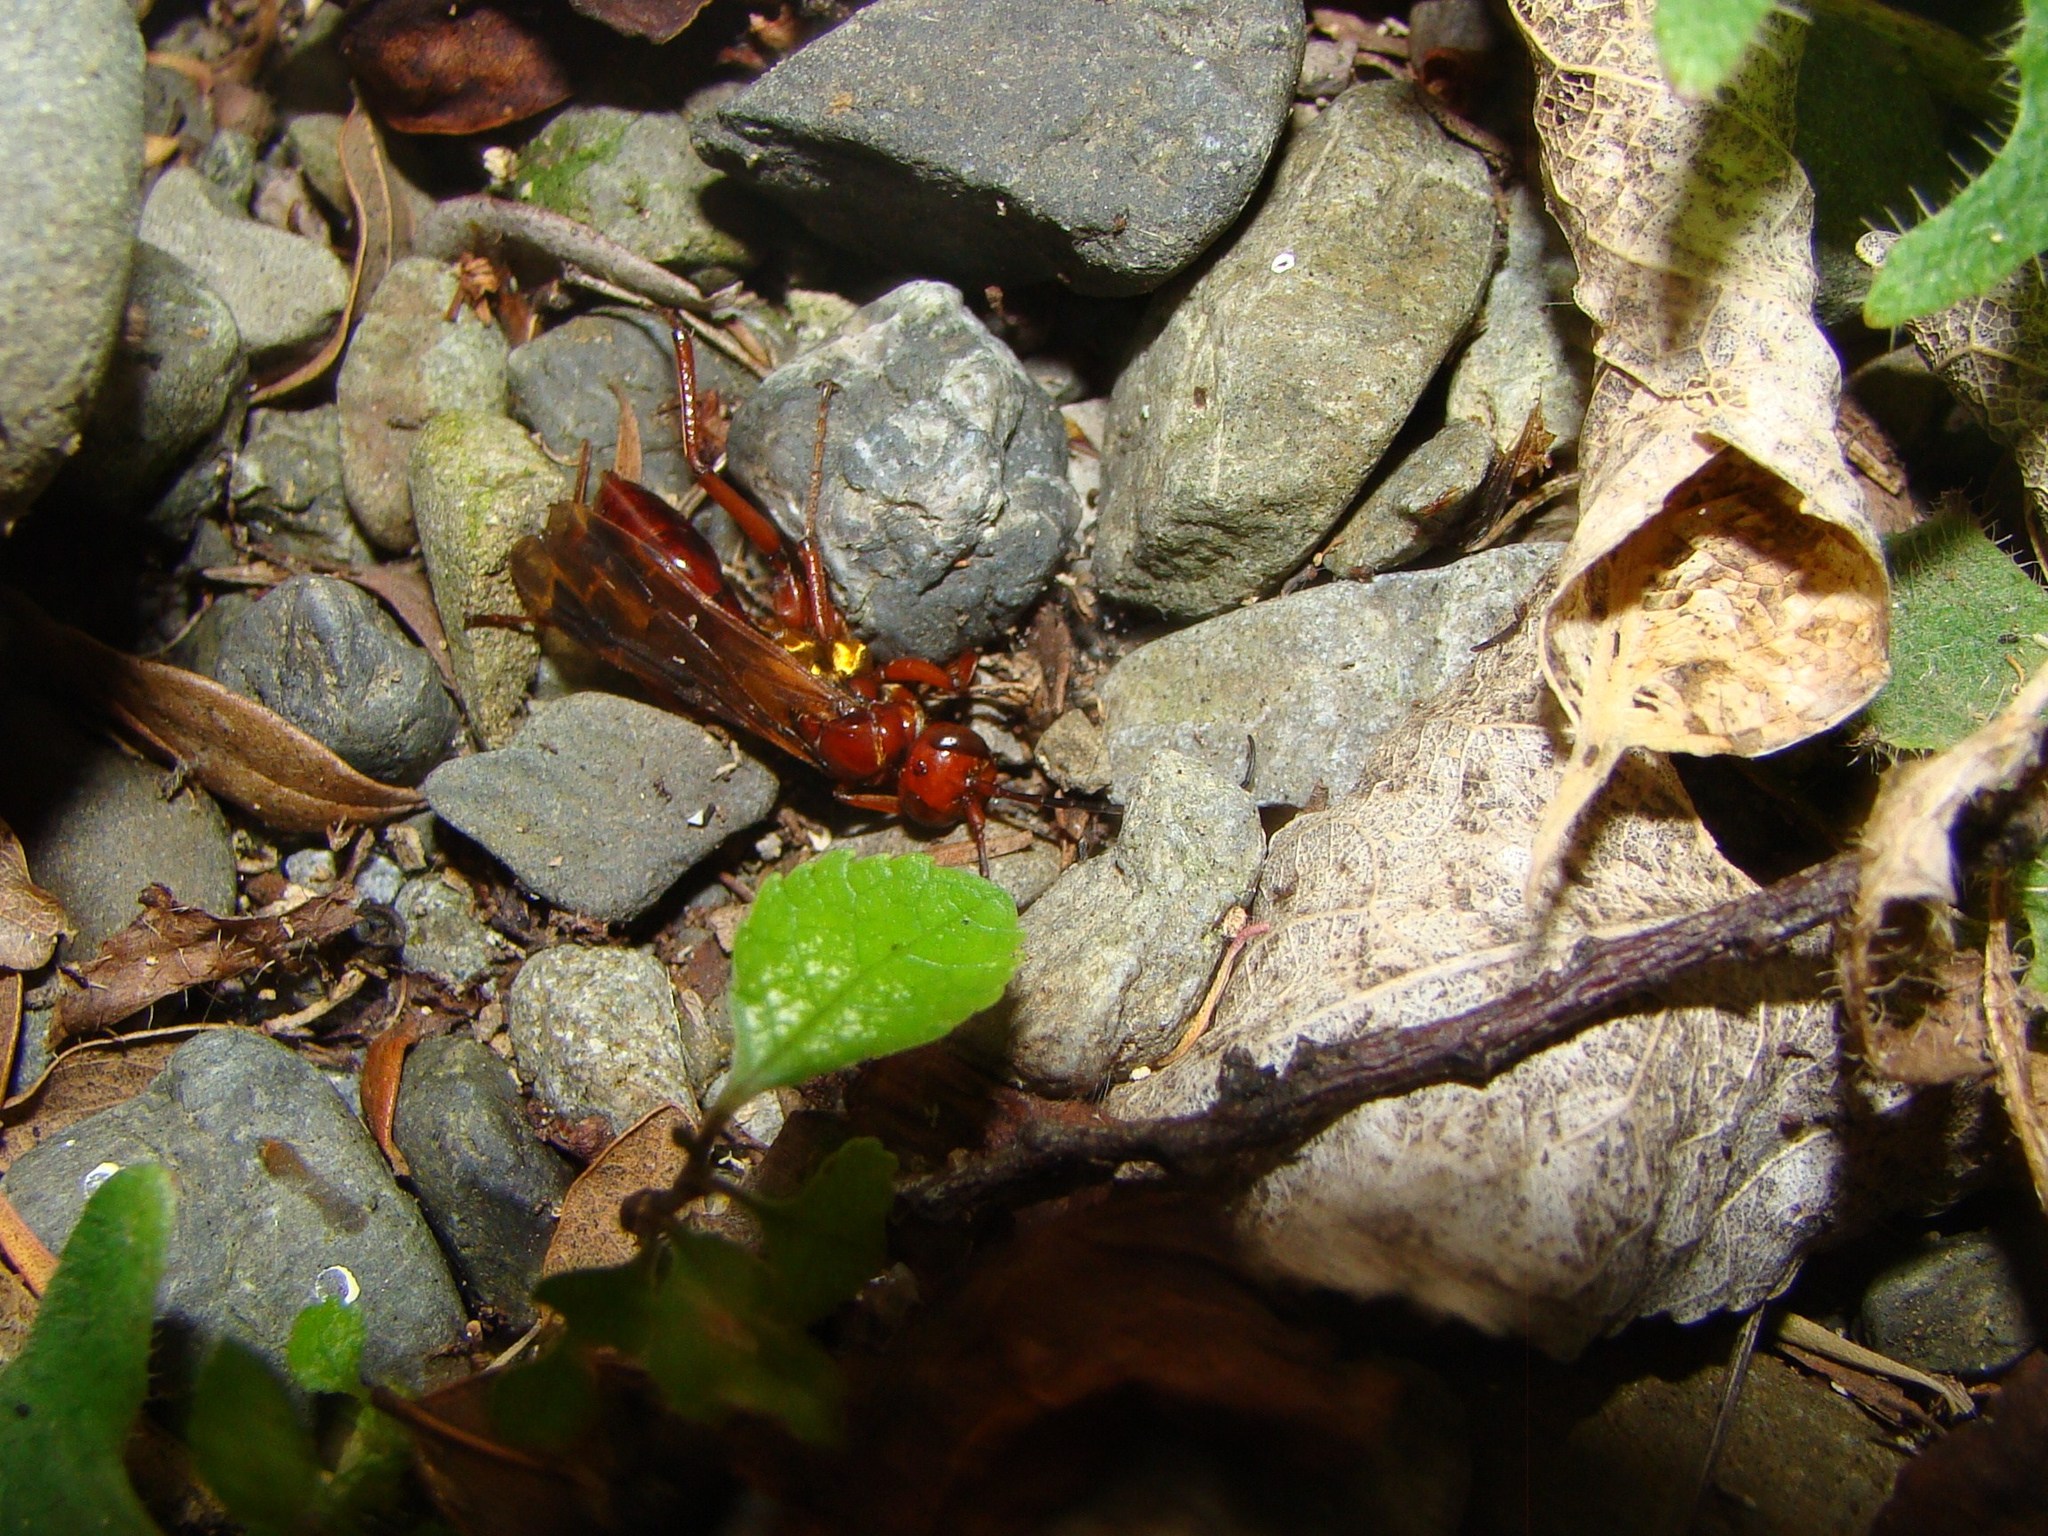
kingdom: Animalia
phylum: Arthropoda
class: Insecta
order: Hymenoptera
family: Pompilidae
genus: Sphictostethus
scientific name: Sphictostethus nitidus
